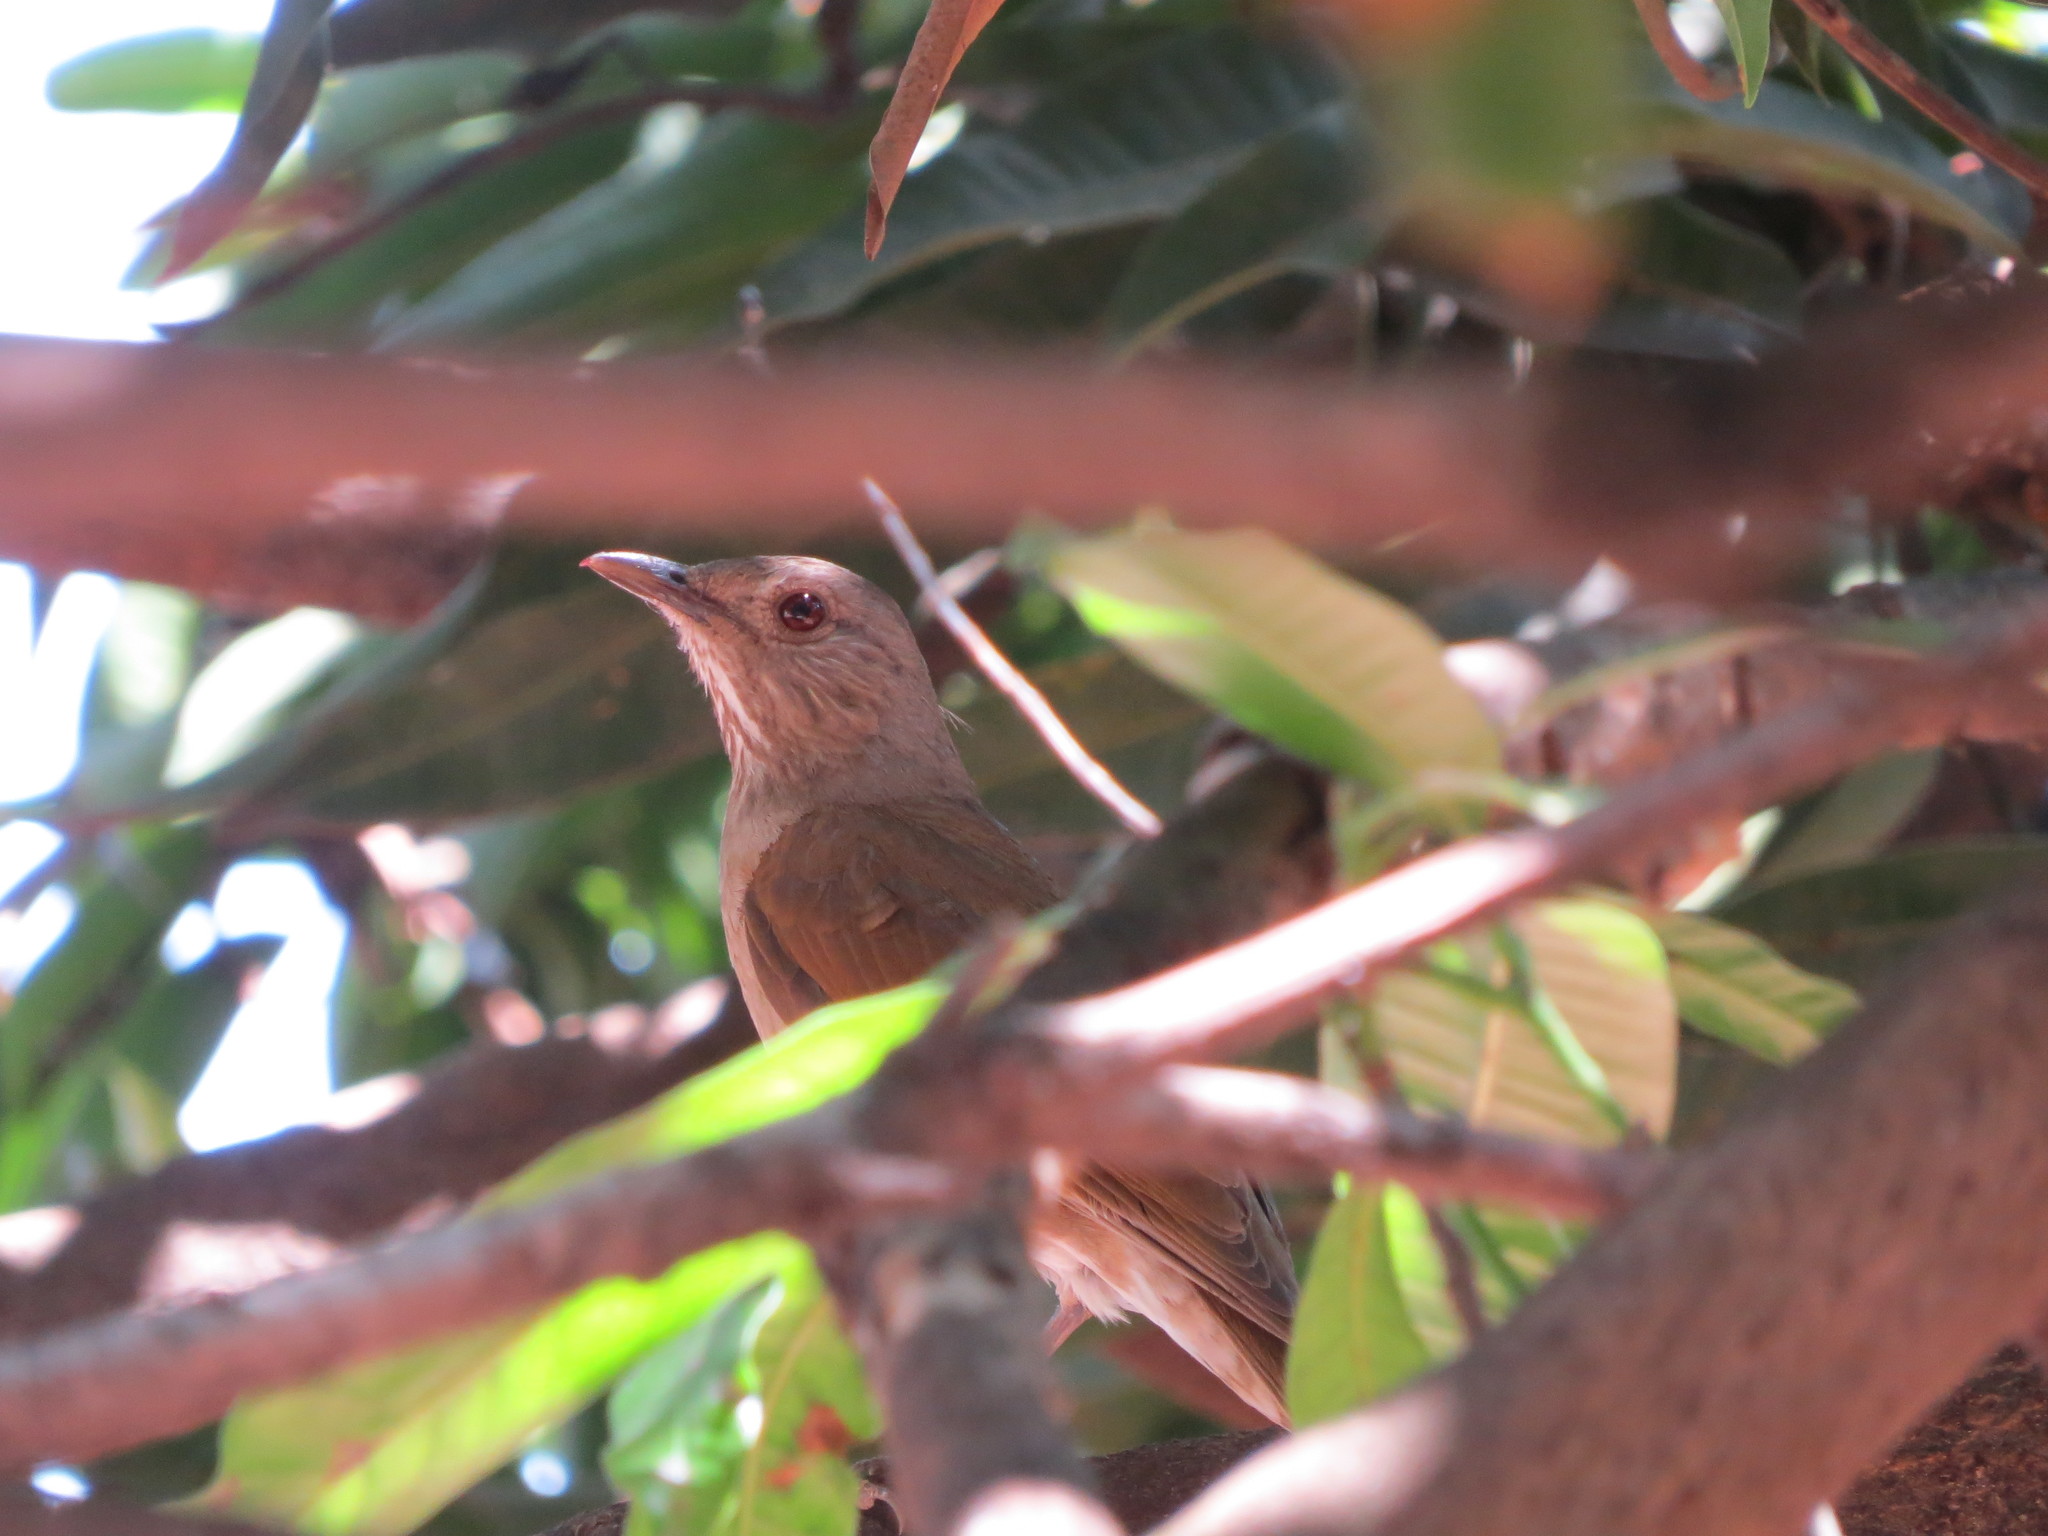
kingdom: Animalia
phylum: Chordata
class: Aves
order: Passeriformes
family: Turdidae
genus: Turdus
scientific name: Turdus leucomelas
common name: Pale-breasted thrush
